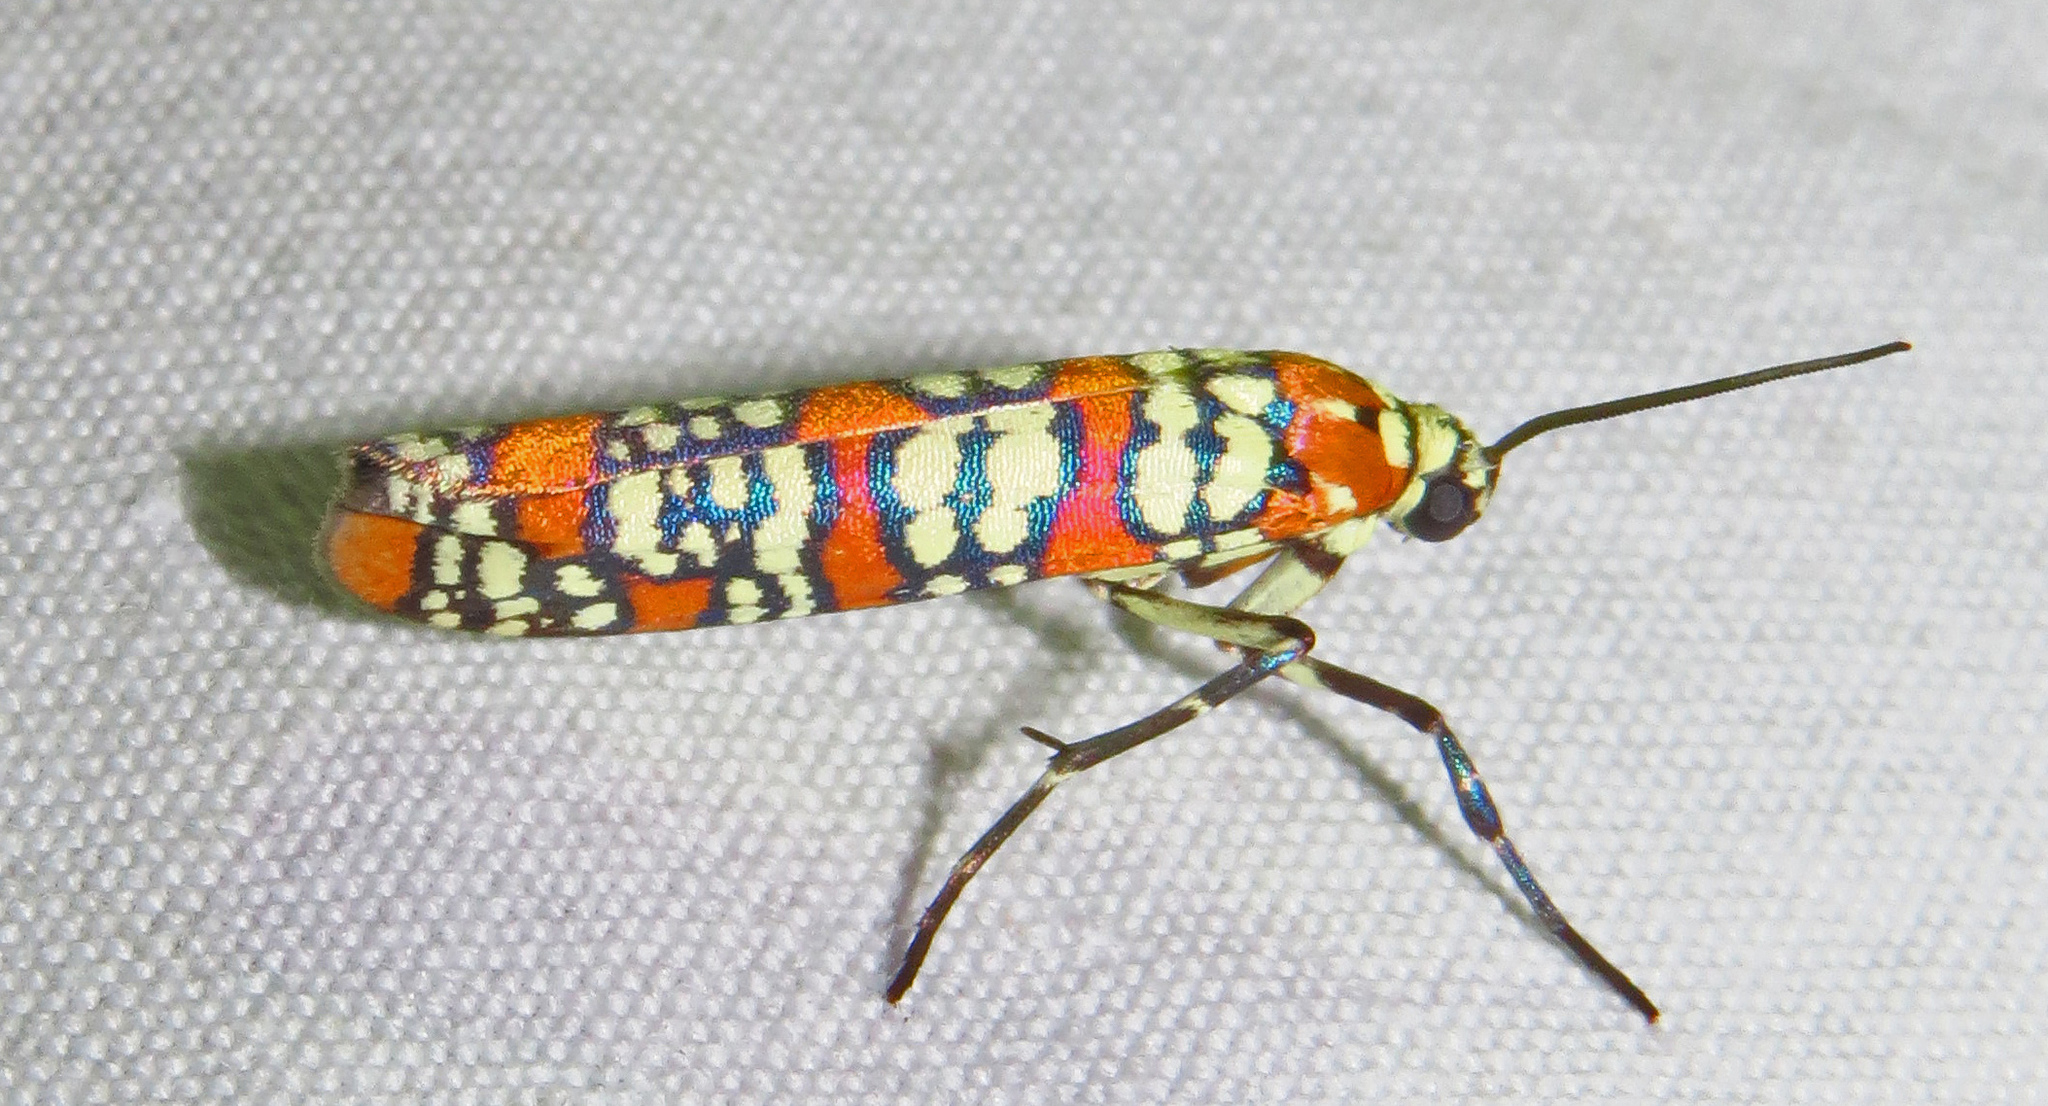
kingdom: Animalia
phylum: Arthropoda
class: Insecta
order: Lepidoptera
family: Attevidae
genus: Atteva
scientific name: Atteva punctella
